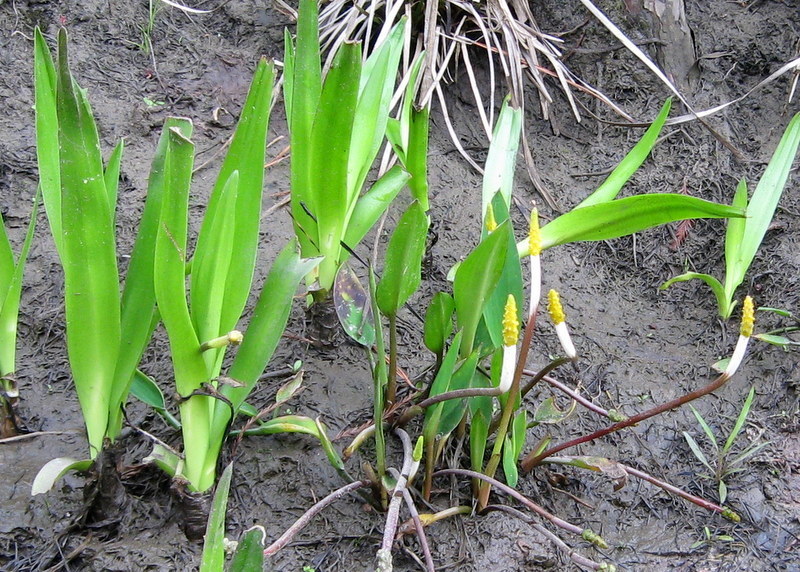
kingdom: Plantae
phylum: Tracheophyta
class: Liliopsida
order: Alismatales
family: Araceae
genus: Orontium
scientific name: Orontium aquaticum
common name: Golden-club
